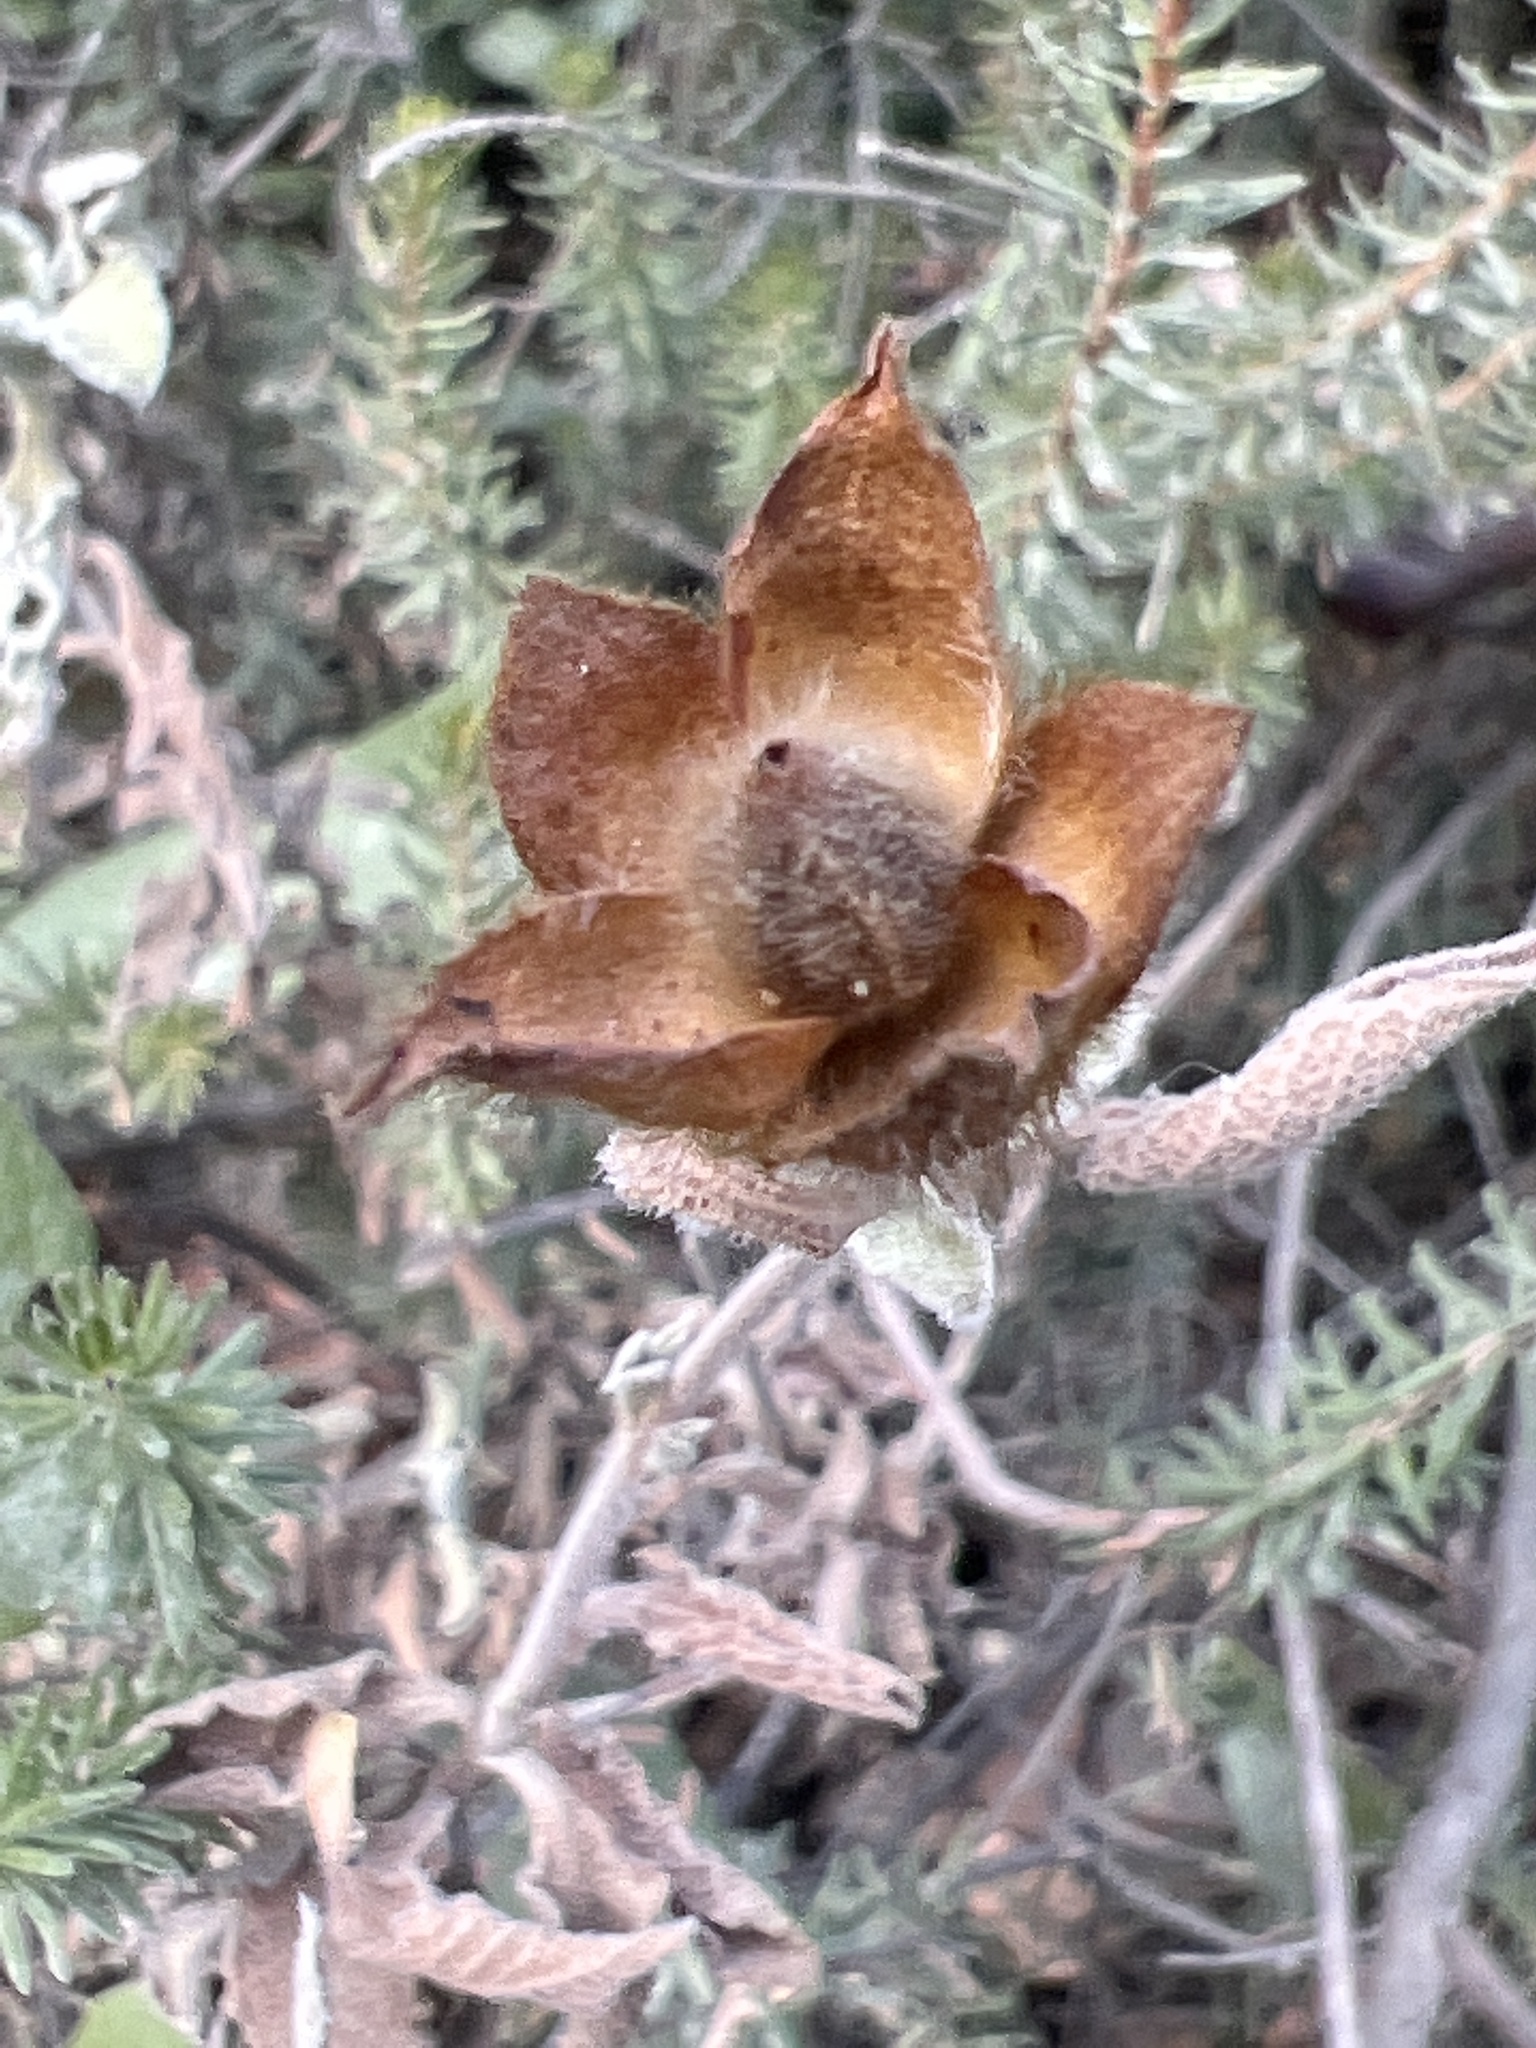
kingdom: Plantae
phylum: Tracheophyta
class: Magnoliopsida
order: Malvales
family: Cistaceae
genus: Cistus
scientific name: Cistus tauricus
